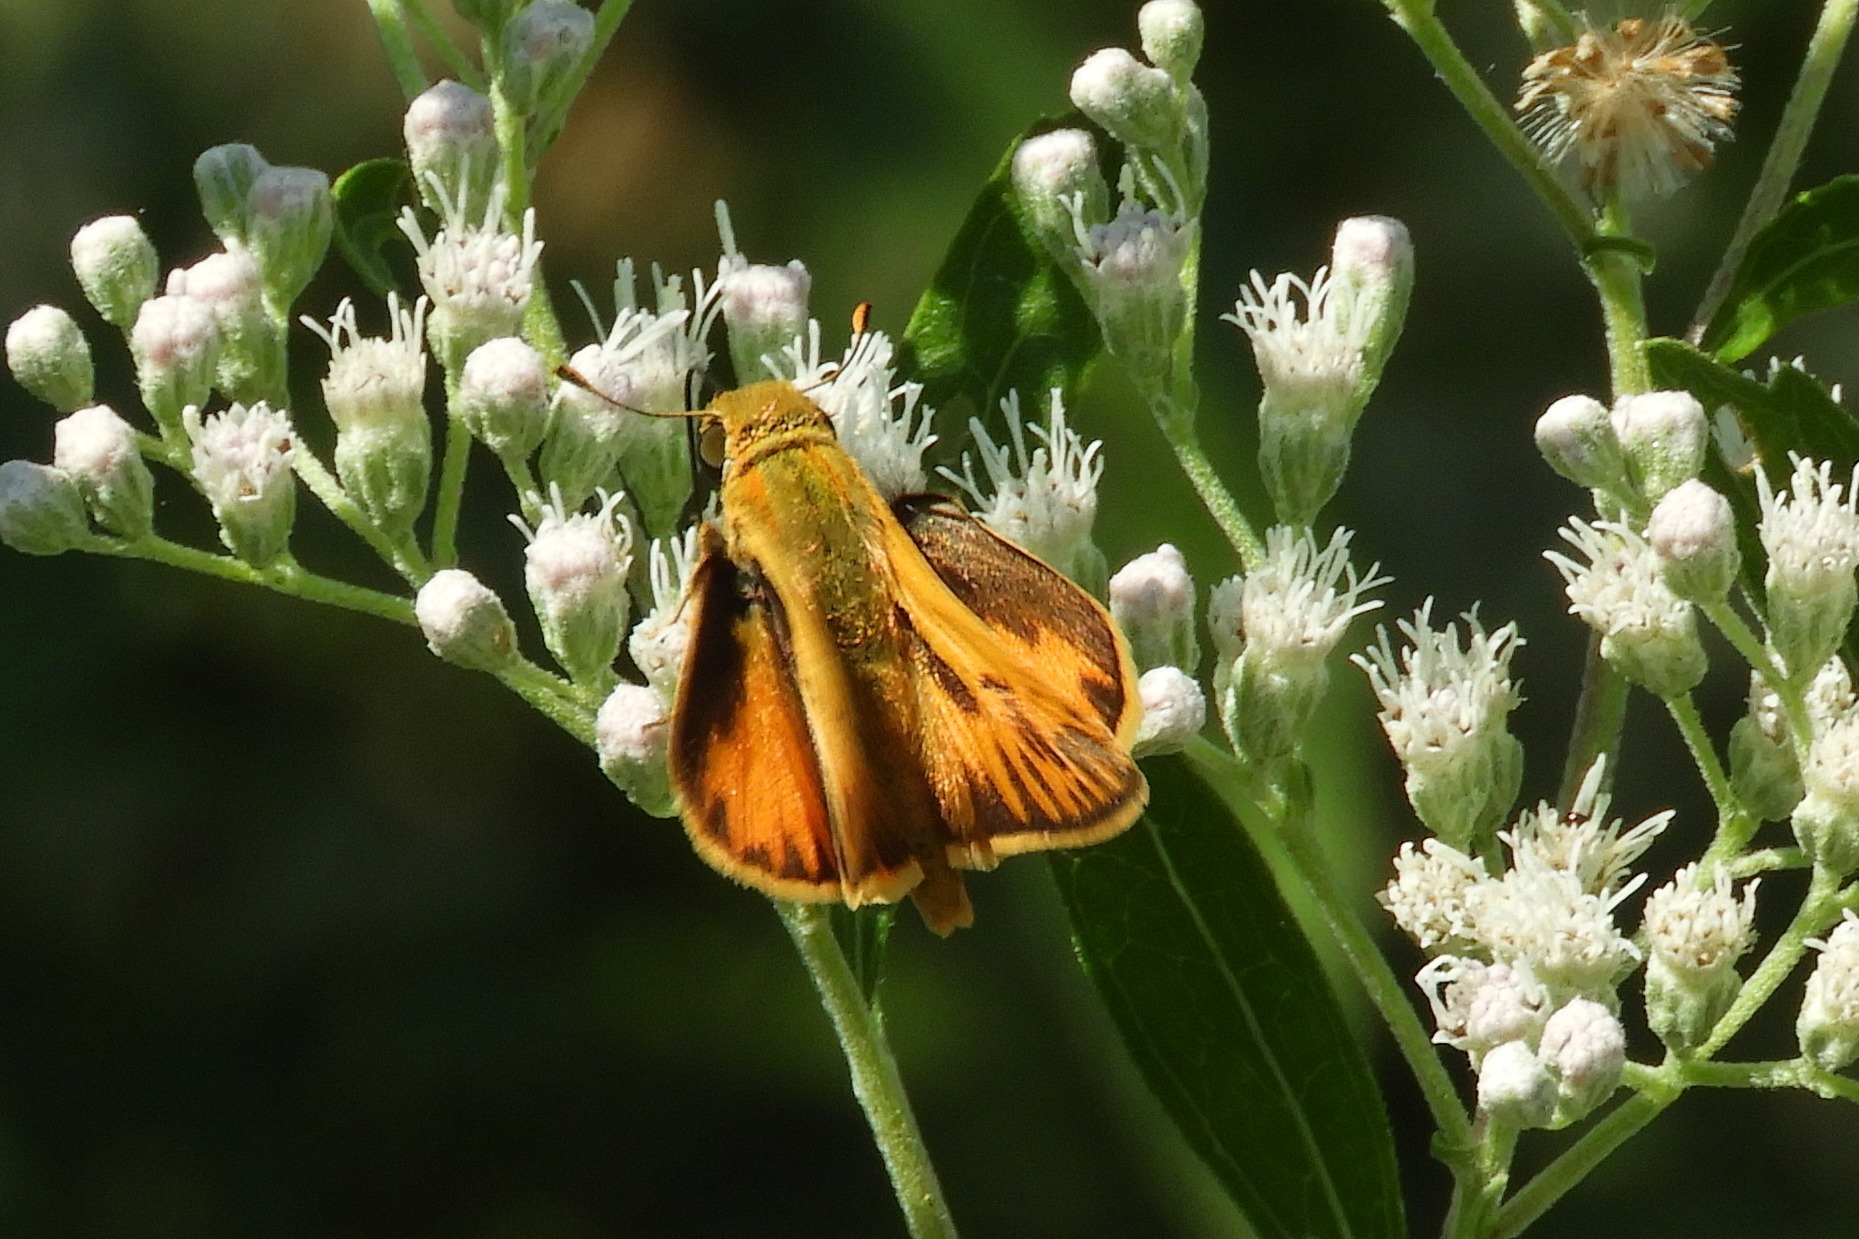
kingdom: Animalia
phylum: Arthropoda
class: Insecta
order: Lepidoptera
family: Hesperiidae
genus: Hylephila
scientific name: Hylephila phyleus
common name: Fiery skipper
